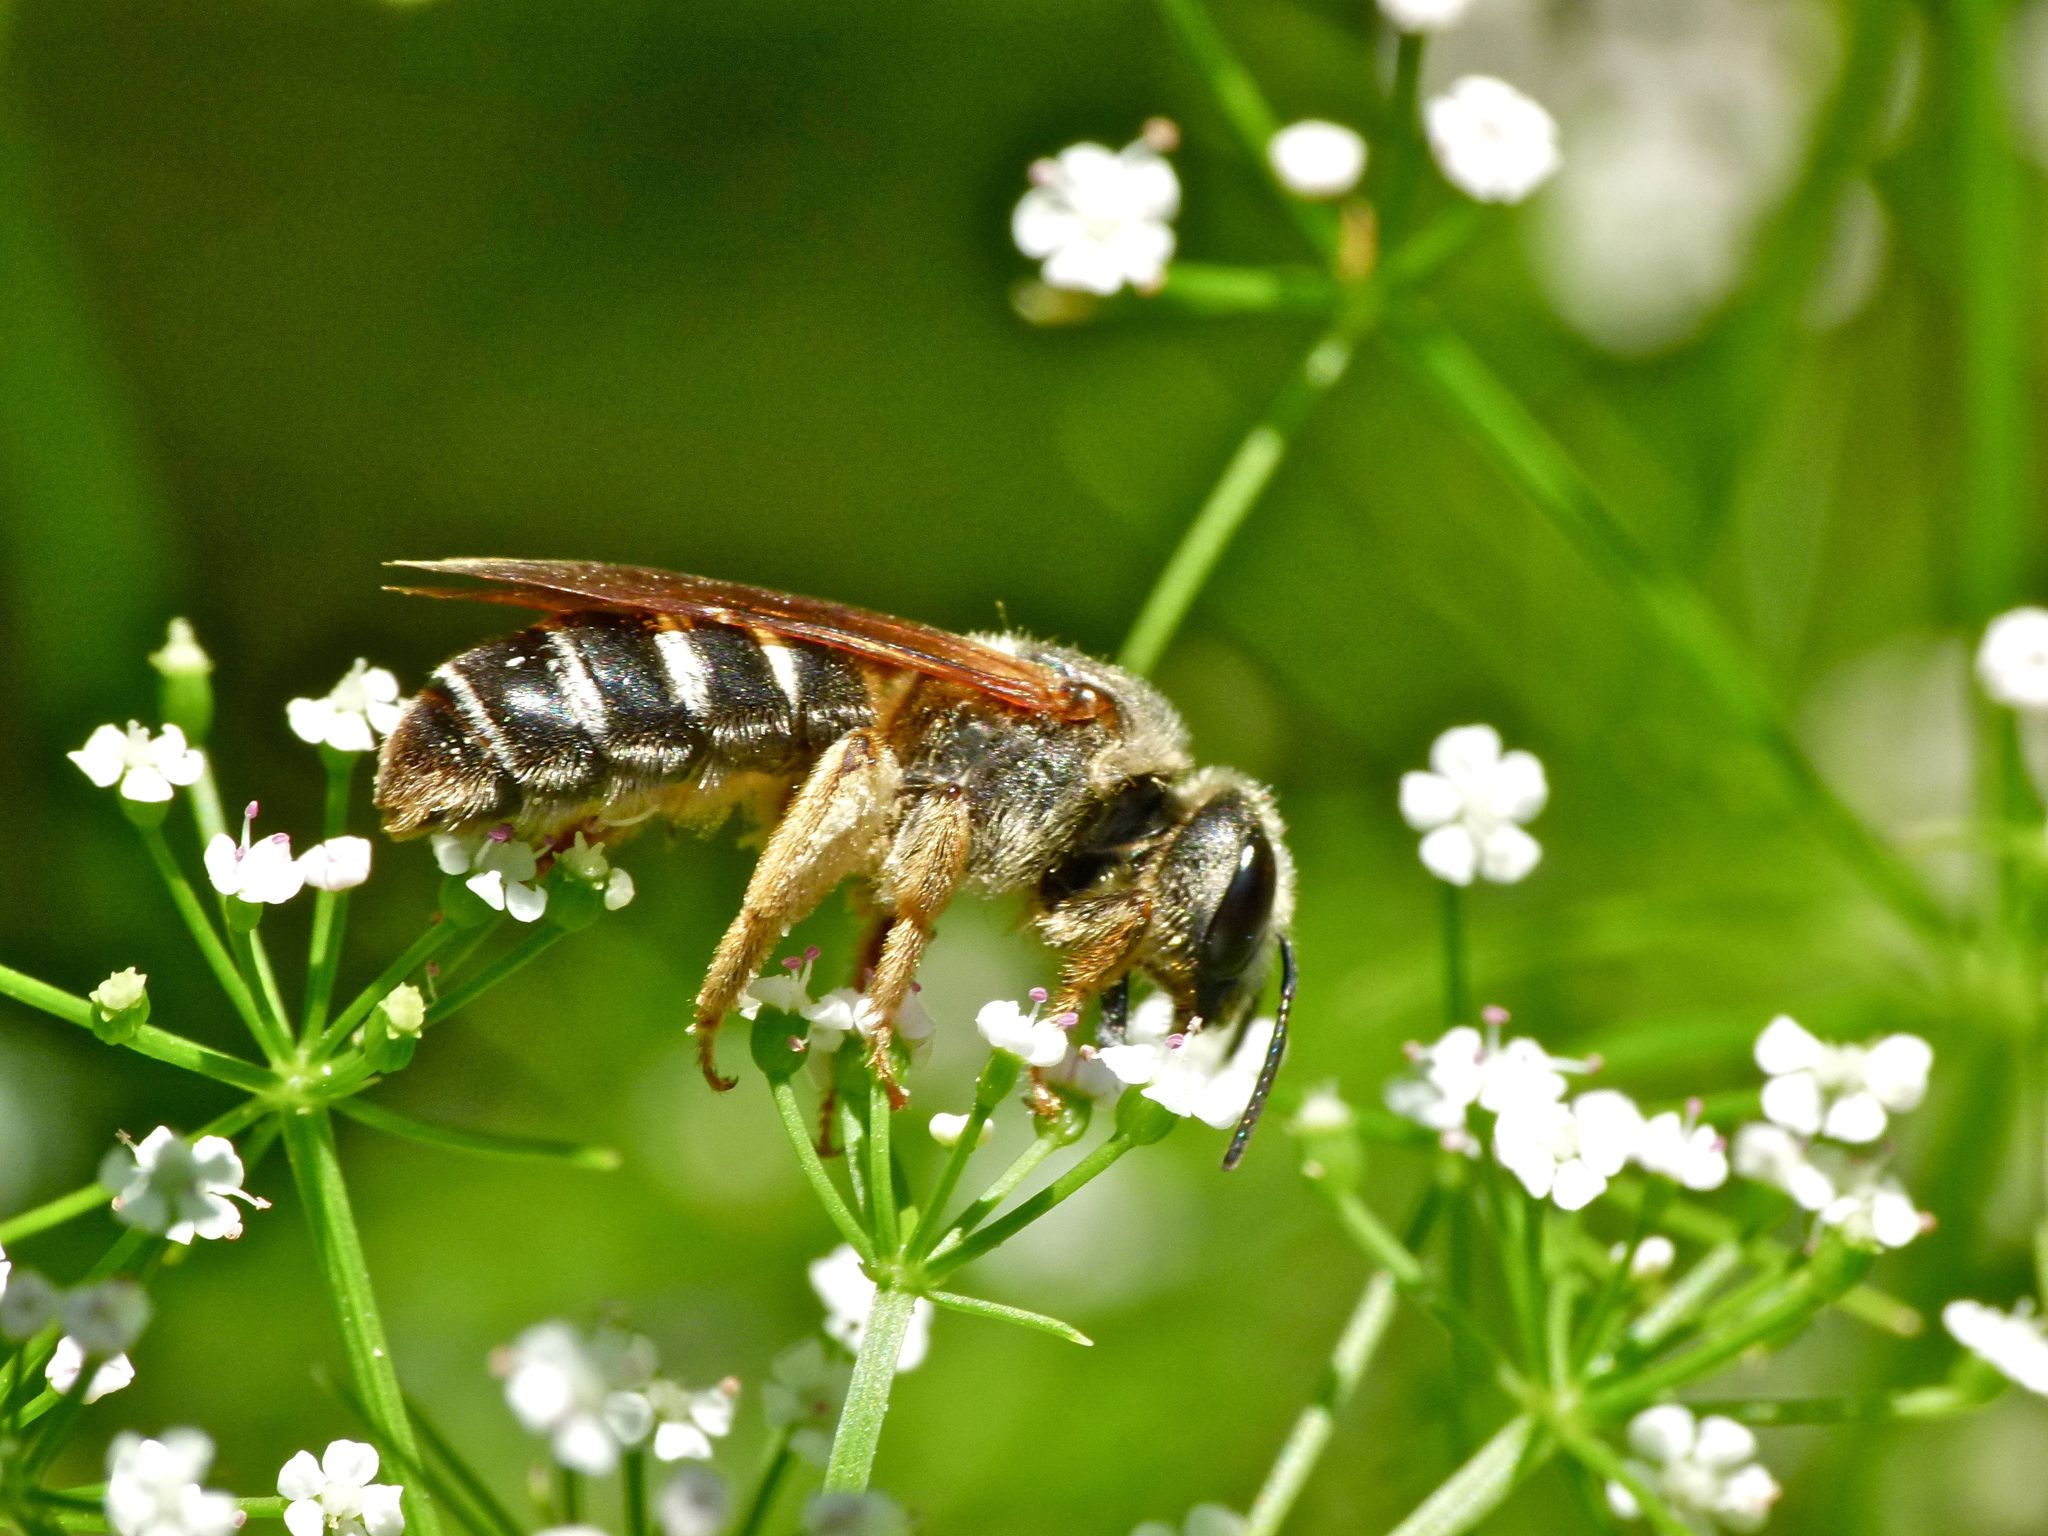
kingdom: Animalia
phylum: Arthropoda
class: Insecta
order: Hymenoptera
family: Halictidae
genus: Halictus
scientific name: Halictus parallelus
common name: Parallel-striped sweat bee
